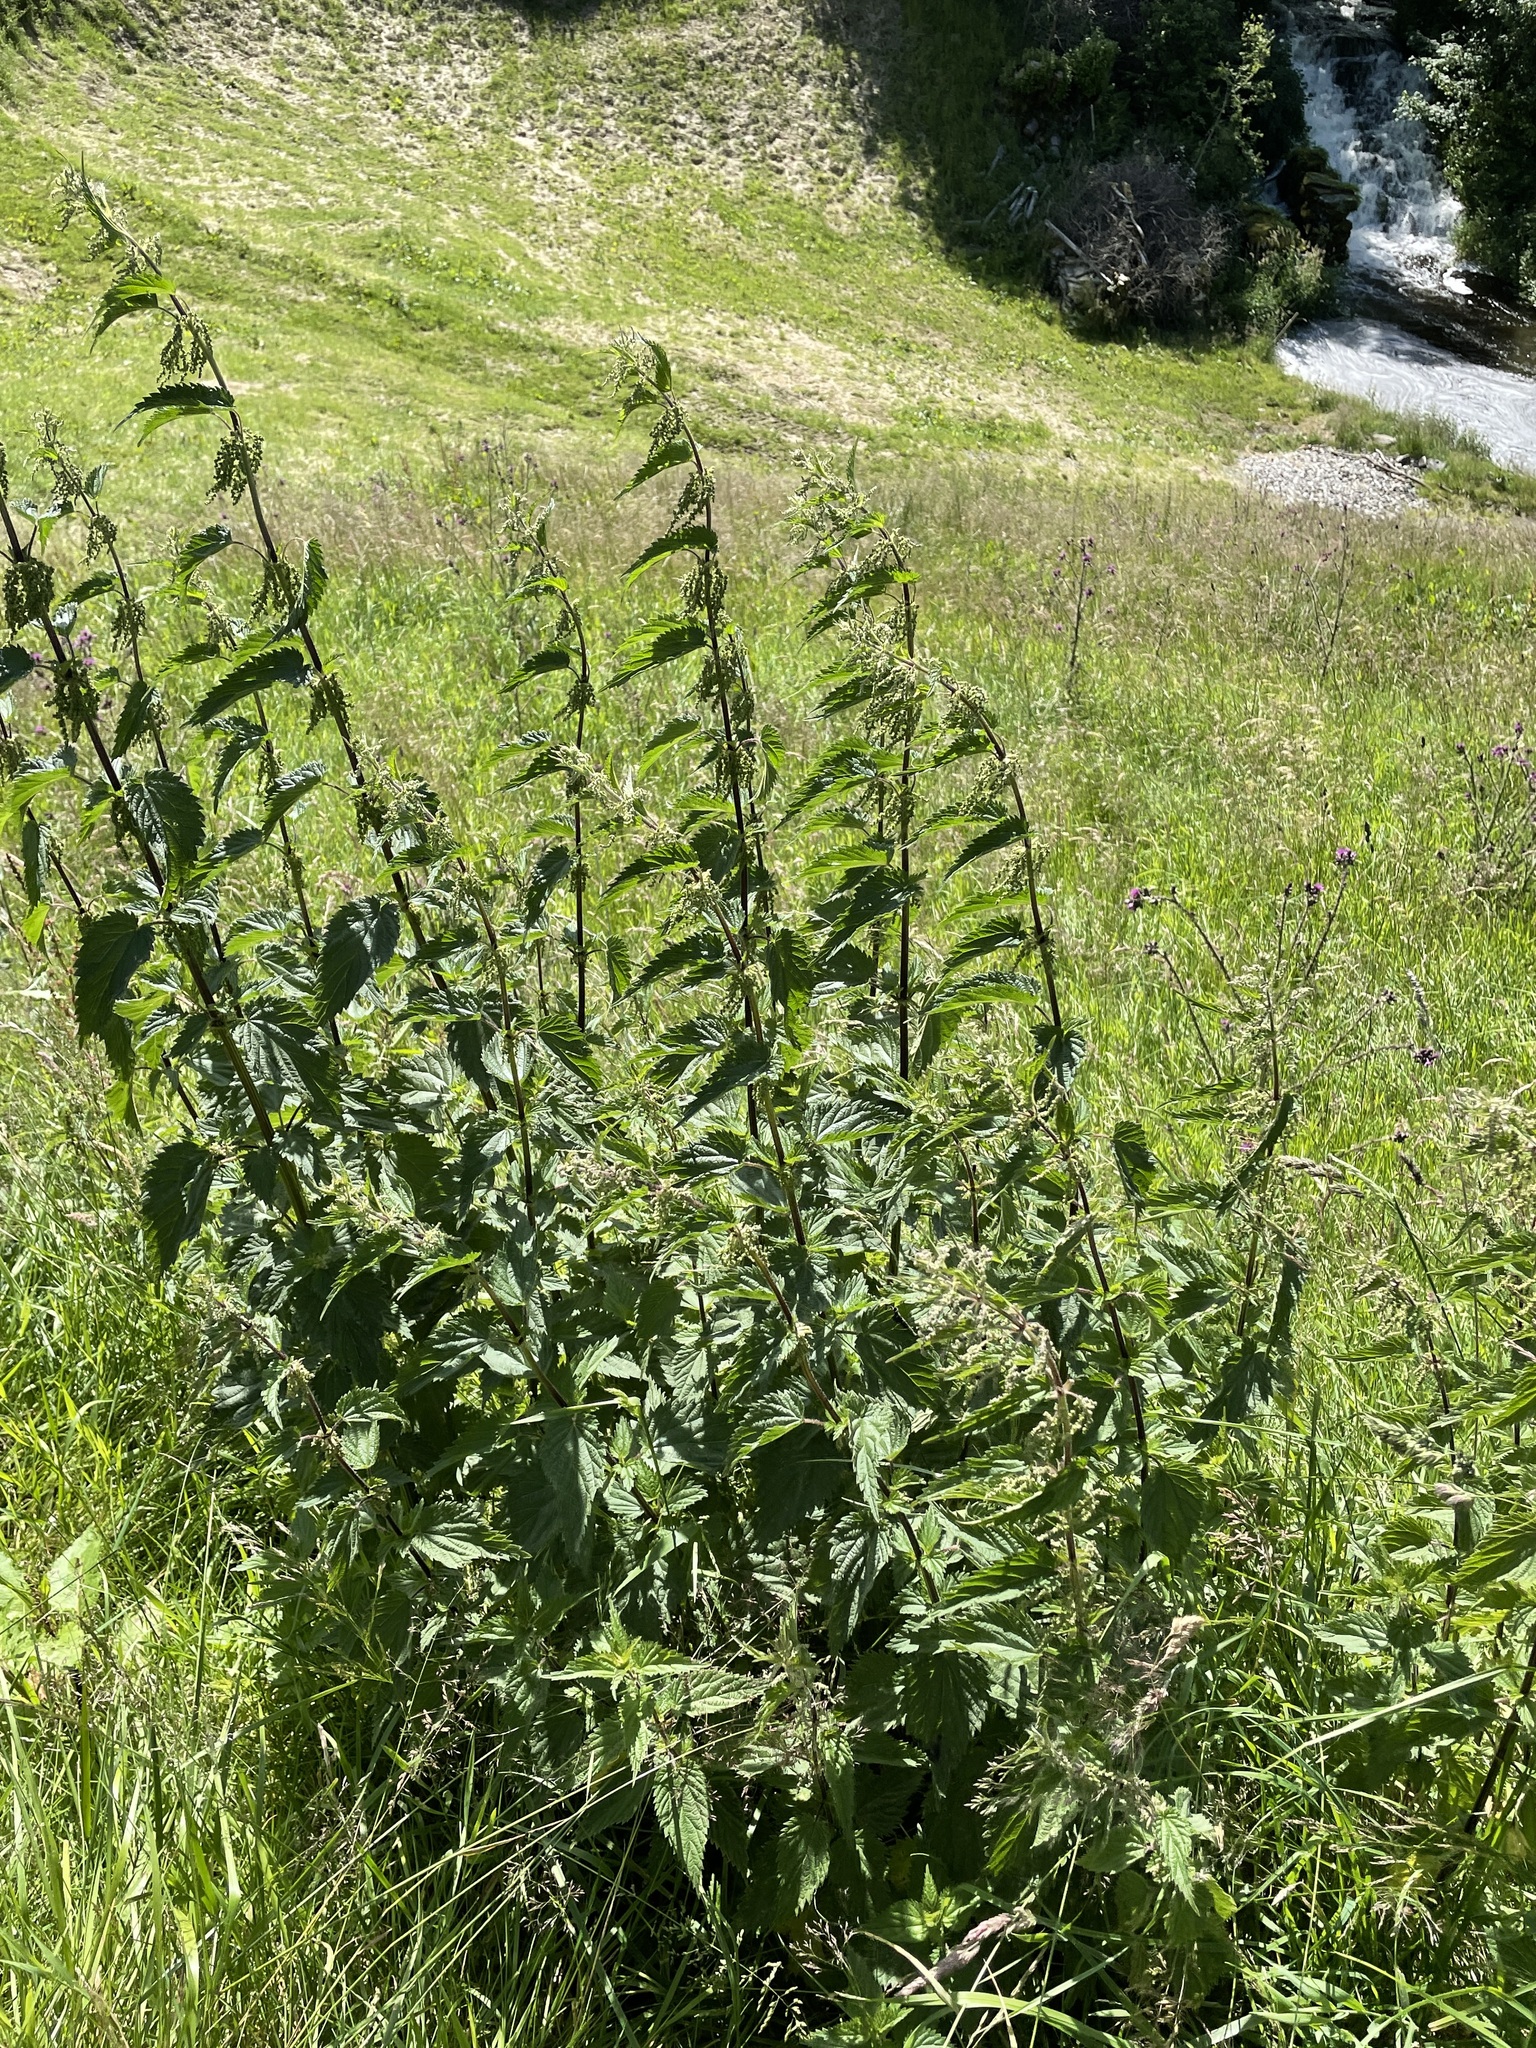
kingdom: Plantae
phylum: Tracheophyta
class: Magnoliopsida
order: Rosales
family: Urticaceae
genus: Urtica
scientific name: Urtica dioica
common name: Common nettle
